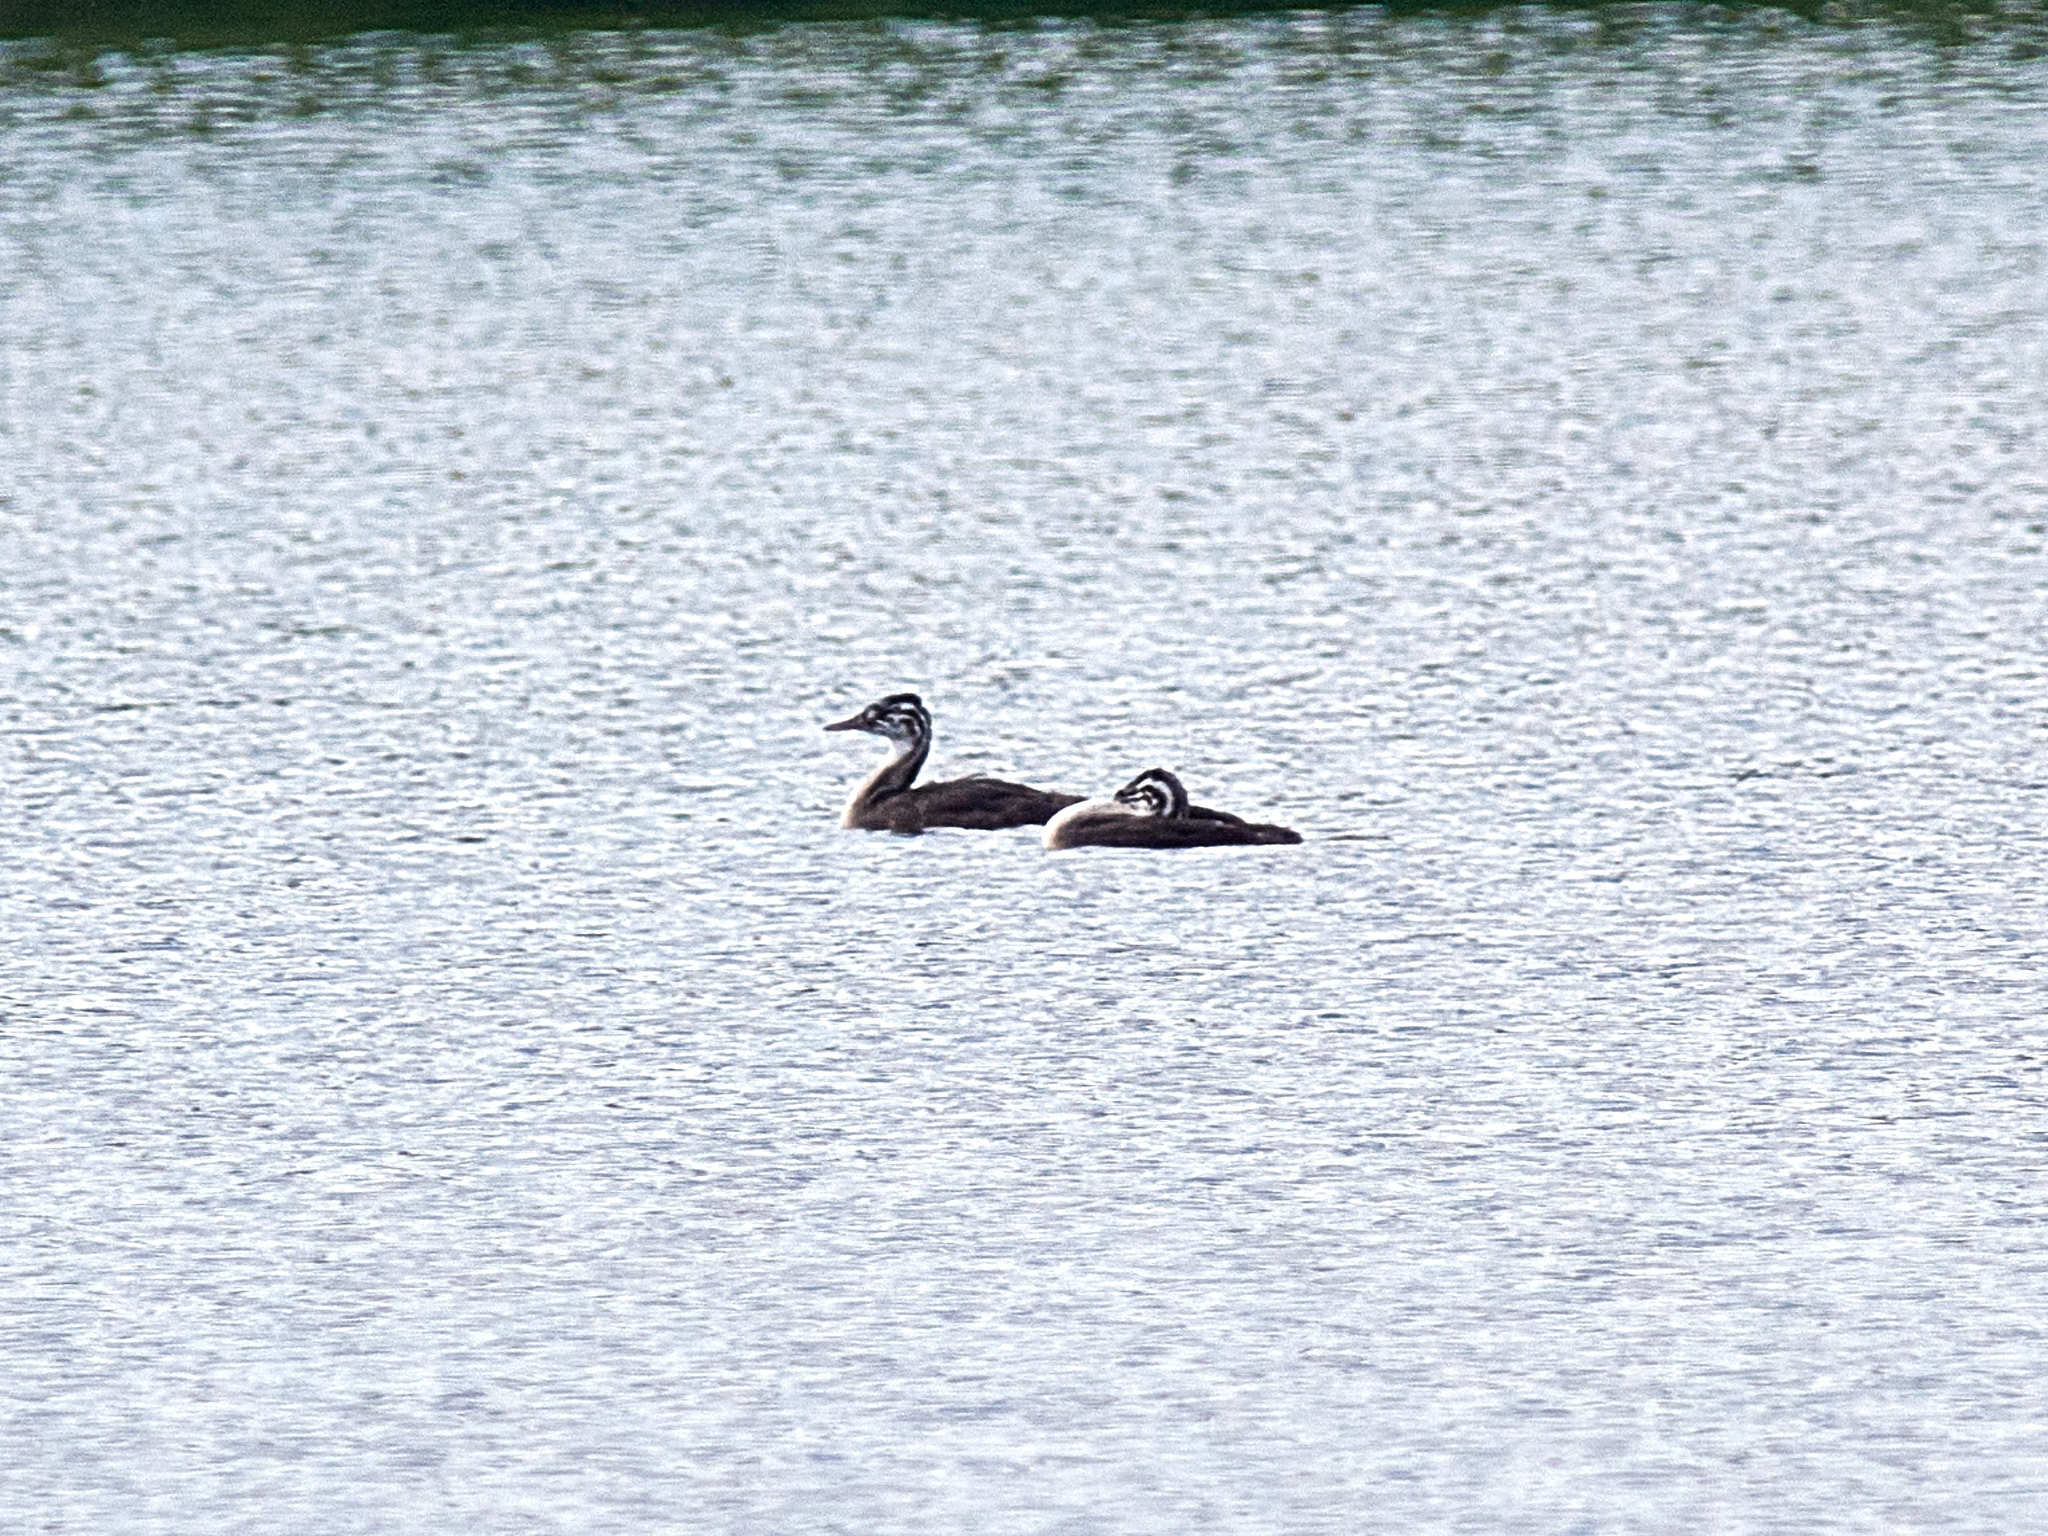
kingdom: Animalia
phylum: Chordata
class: Aves
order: Podicipediformes
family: Podicipedidae
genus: Podiceps
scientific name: Podiceps cristatus
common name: Great crested grebe
